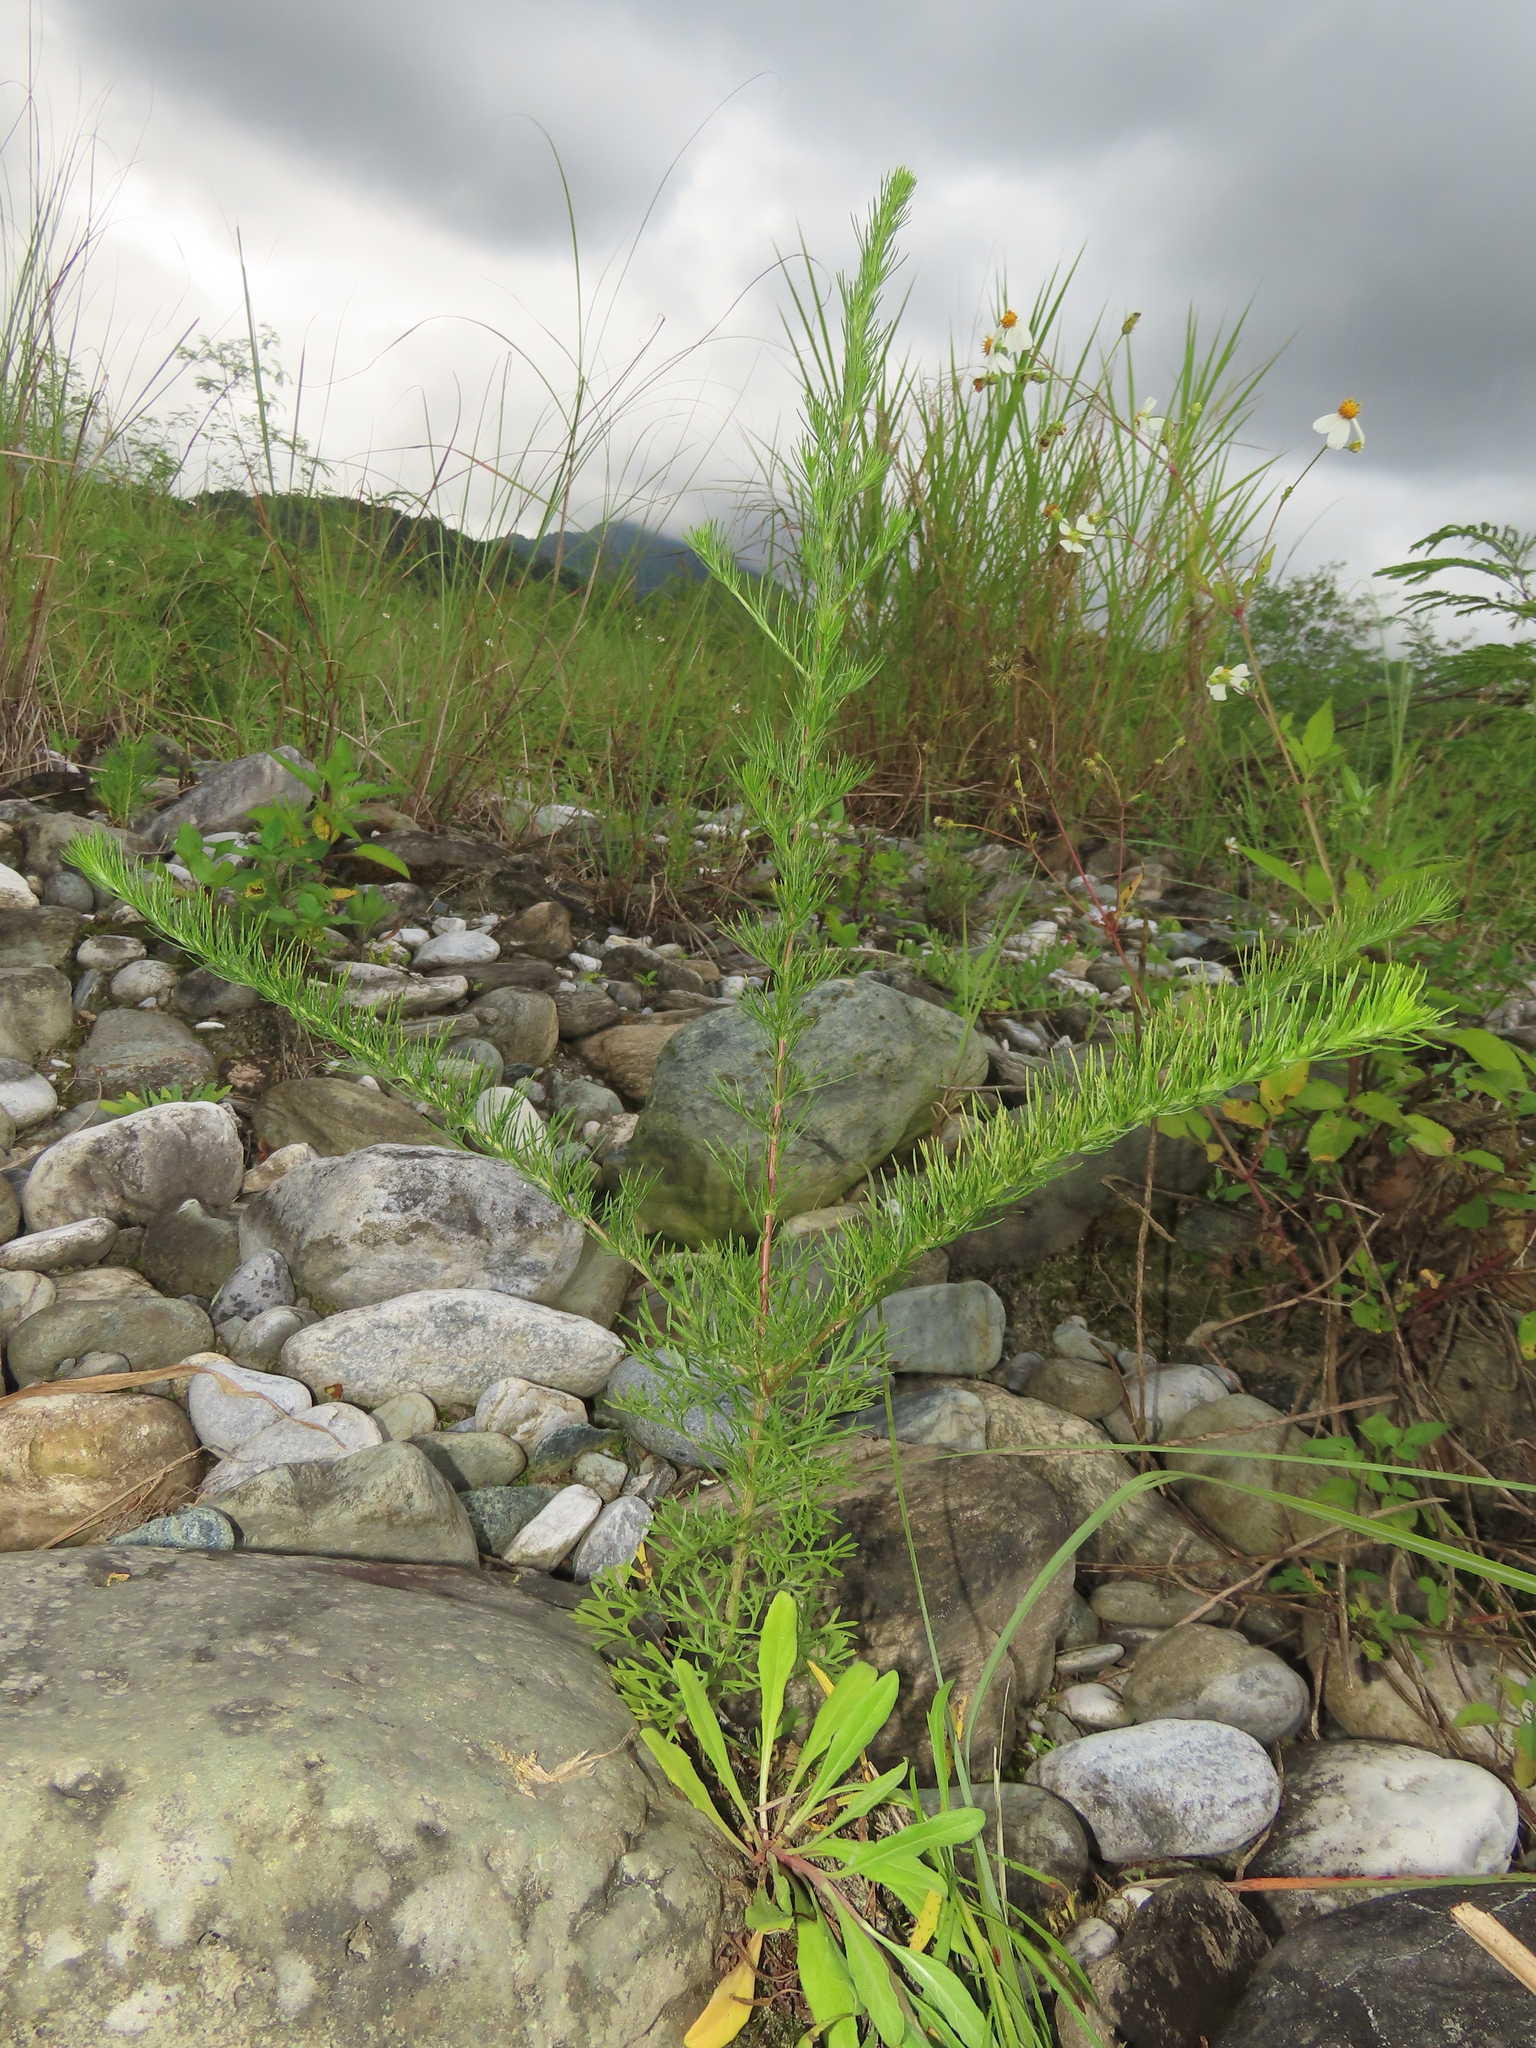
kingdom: Plantae
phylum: Tracheophyta
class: Magnoliopsida
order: Asterales
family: Asteraceae
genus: Artemisia
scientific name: Artemisia capillaris
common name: Yin-chen wormwood
